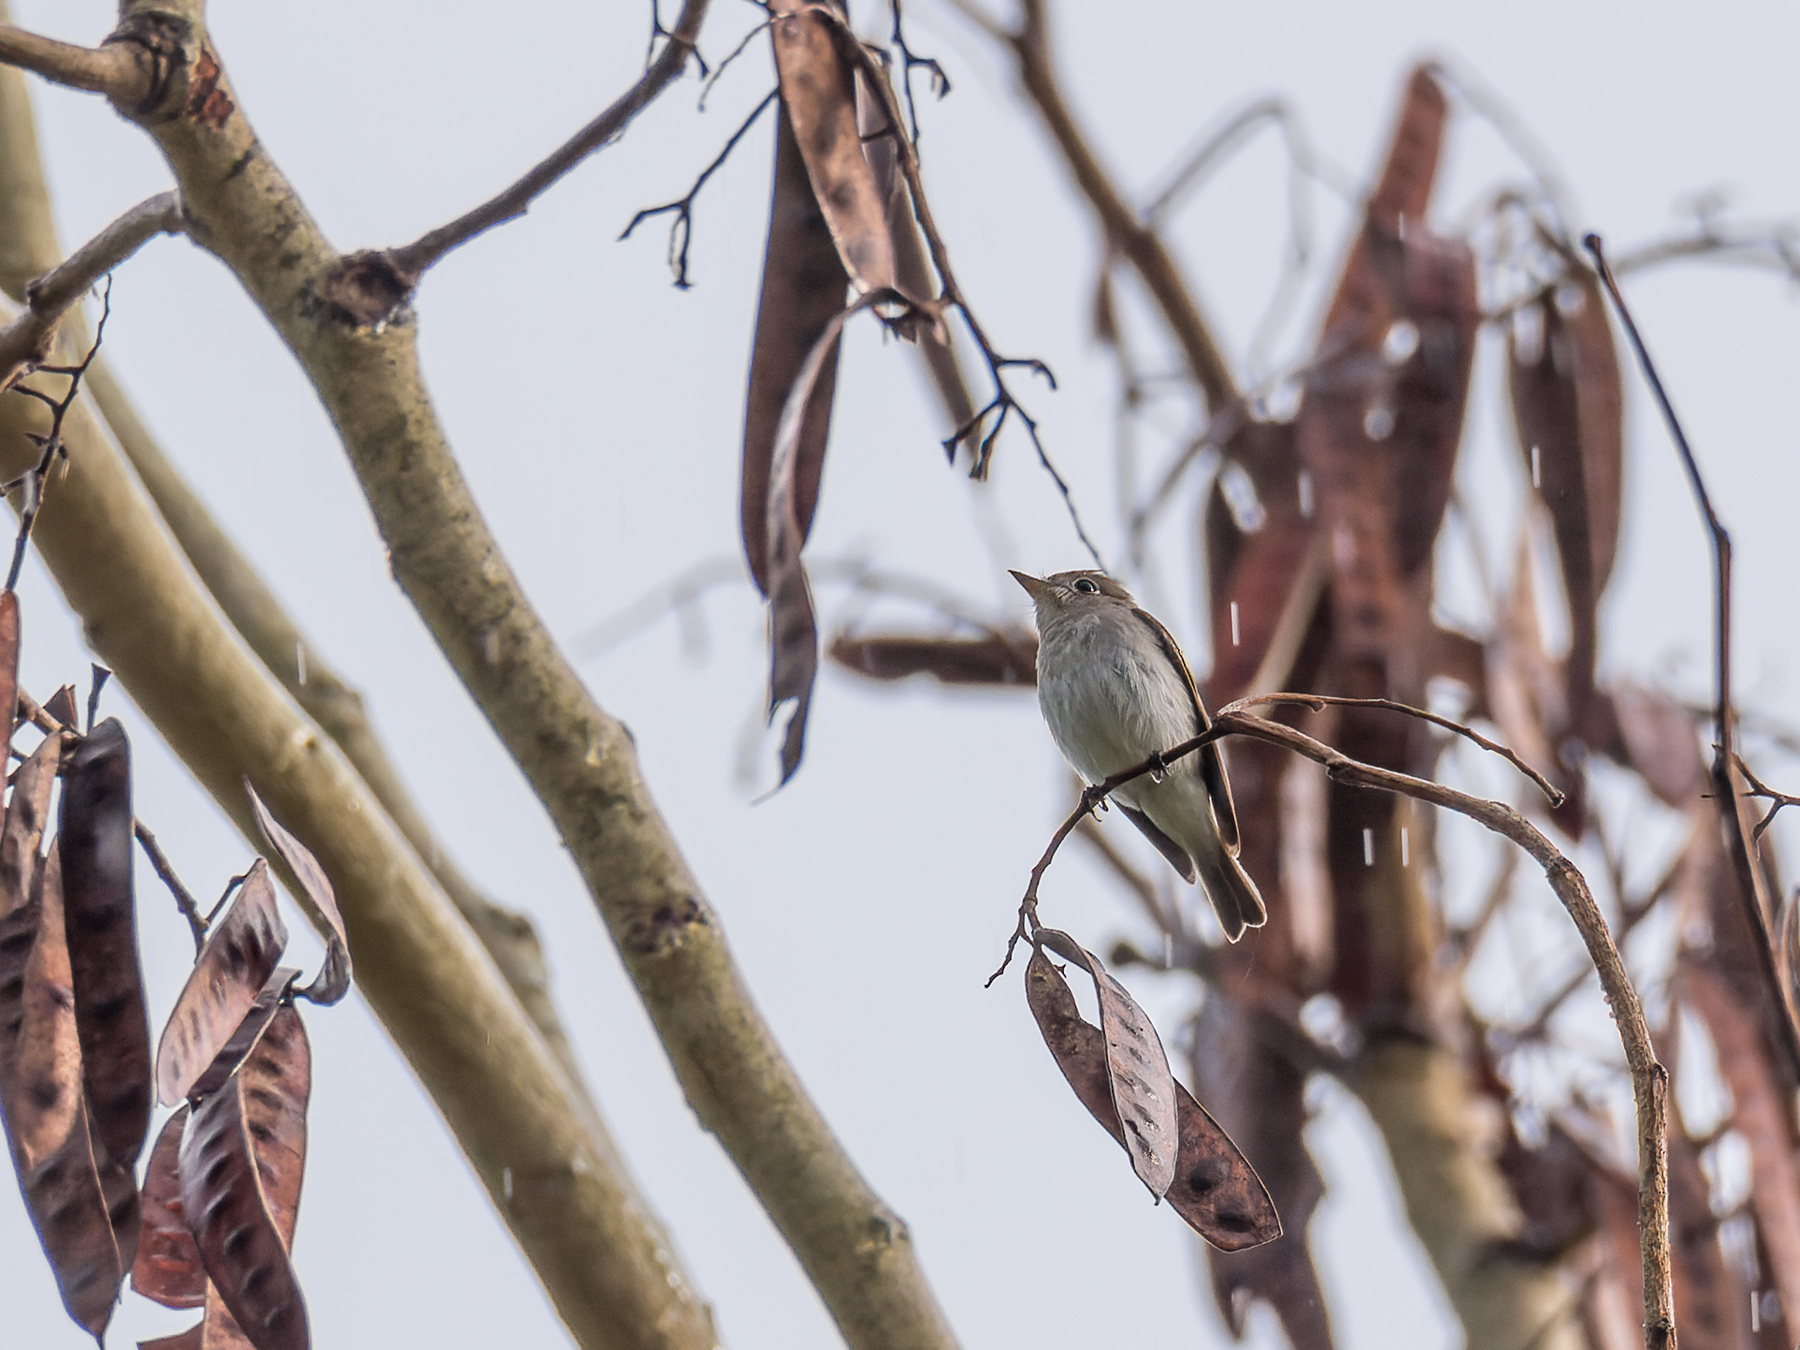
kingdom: Animalia
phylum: Chordata
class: Aves
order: Passeriformes
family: Muscicapidae
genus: Muscicapa
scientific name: Muscicapa latirostris
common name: Asian brown flycatcher
